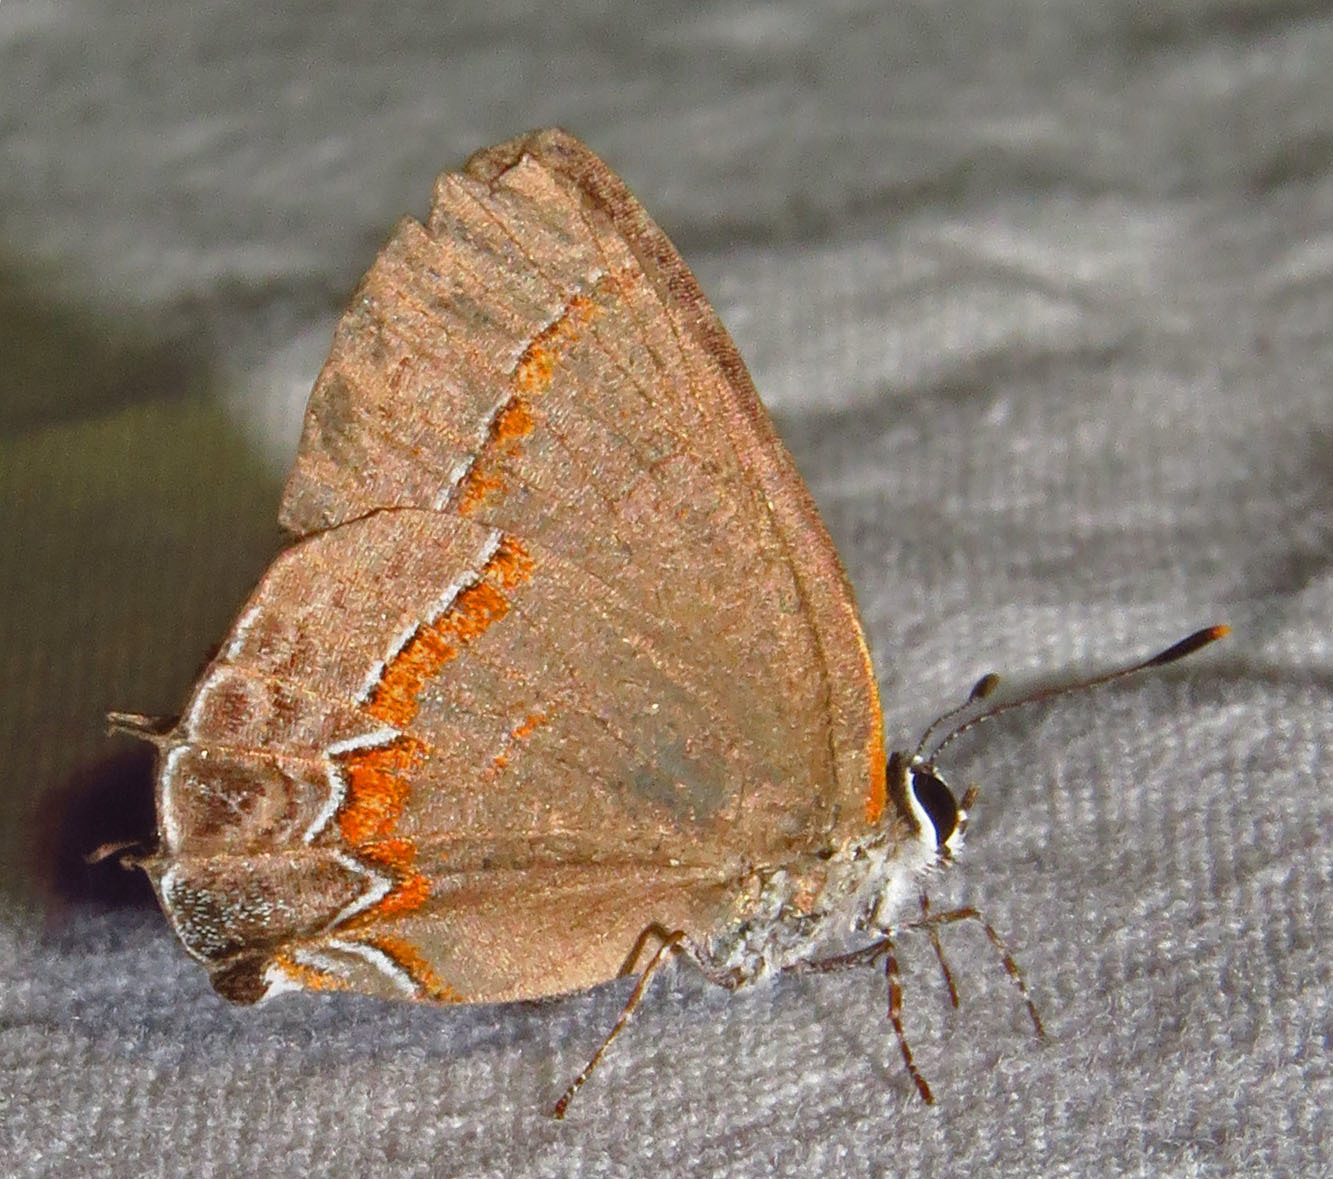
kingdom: Animalia
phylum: Arthropoda
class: Insecta
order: Lepidoptera
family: Lycaenidae
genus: Calycopis
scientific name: Calycopis cecrops
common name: Red-banded hairstreak
